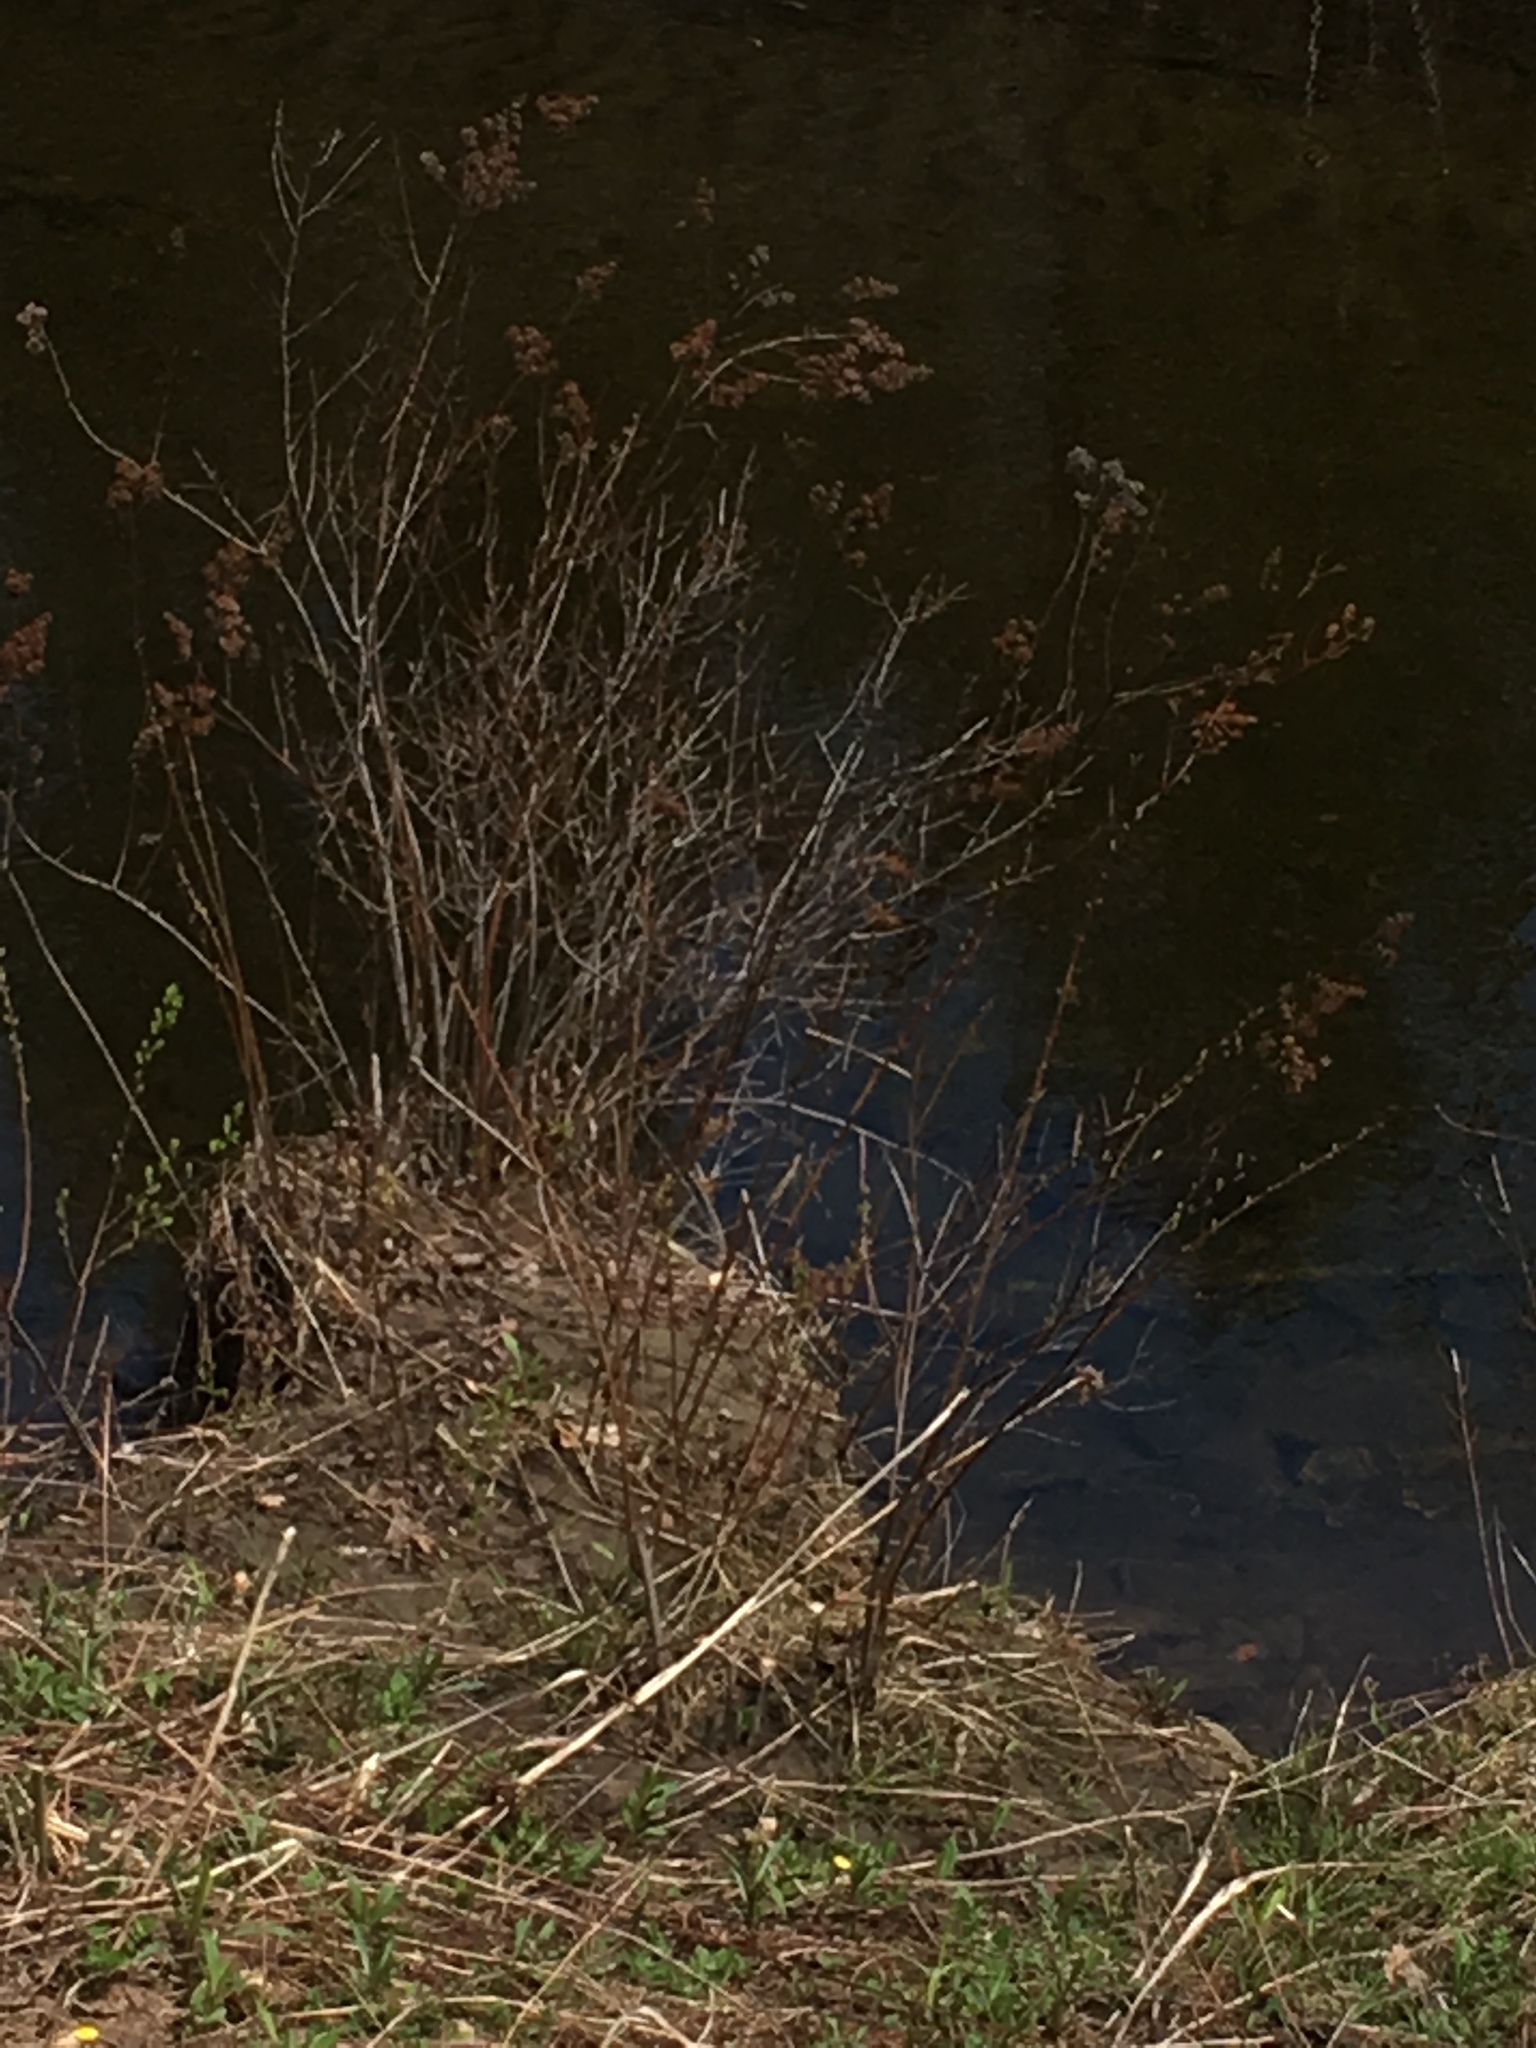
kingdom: Plantae
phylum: Tracheophyta
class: Magnoliopsida
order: Rosales
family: Rosaceae
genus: Spiraea
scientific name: Spiraea alba
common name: Pale bridewort
